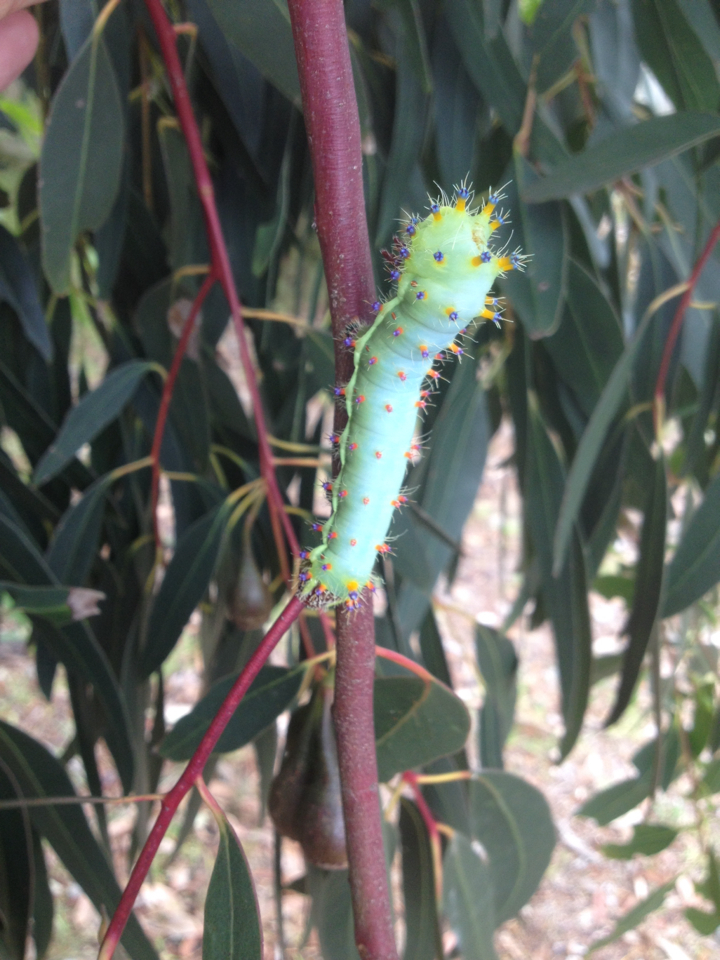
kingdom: Animalia
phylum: Arthropoda
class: Insecta
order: Lepidoptera
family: Saturniidae
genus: Opodiphthera
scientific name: Opodiphthera
